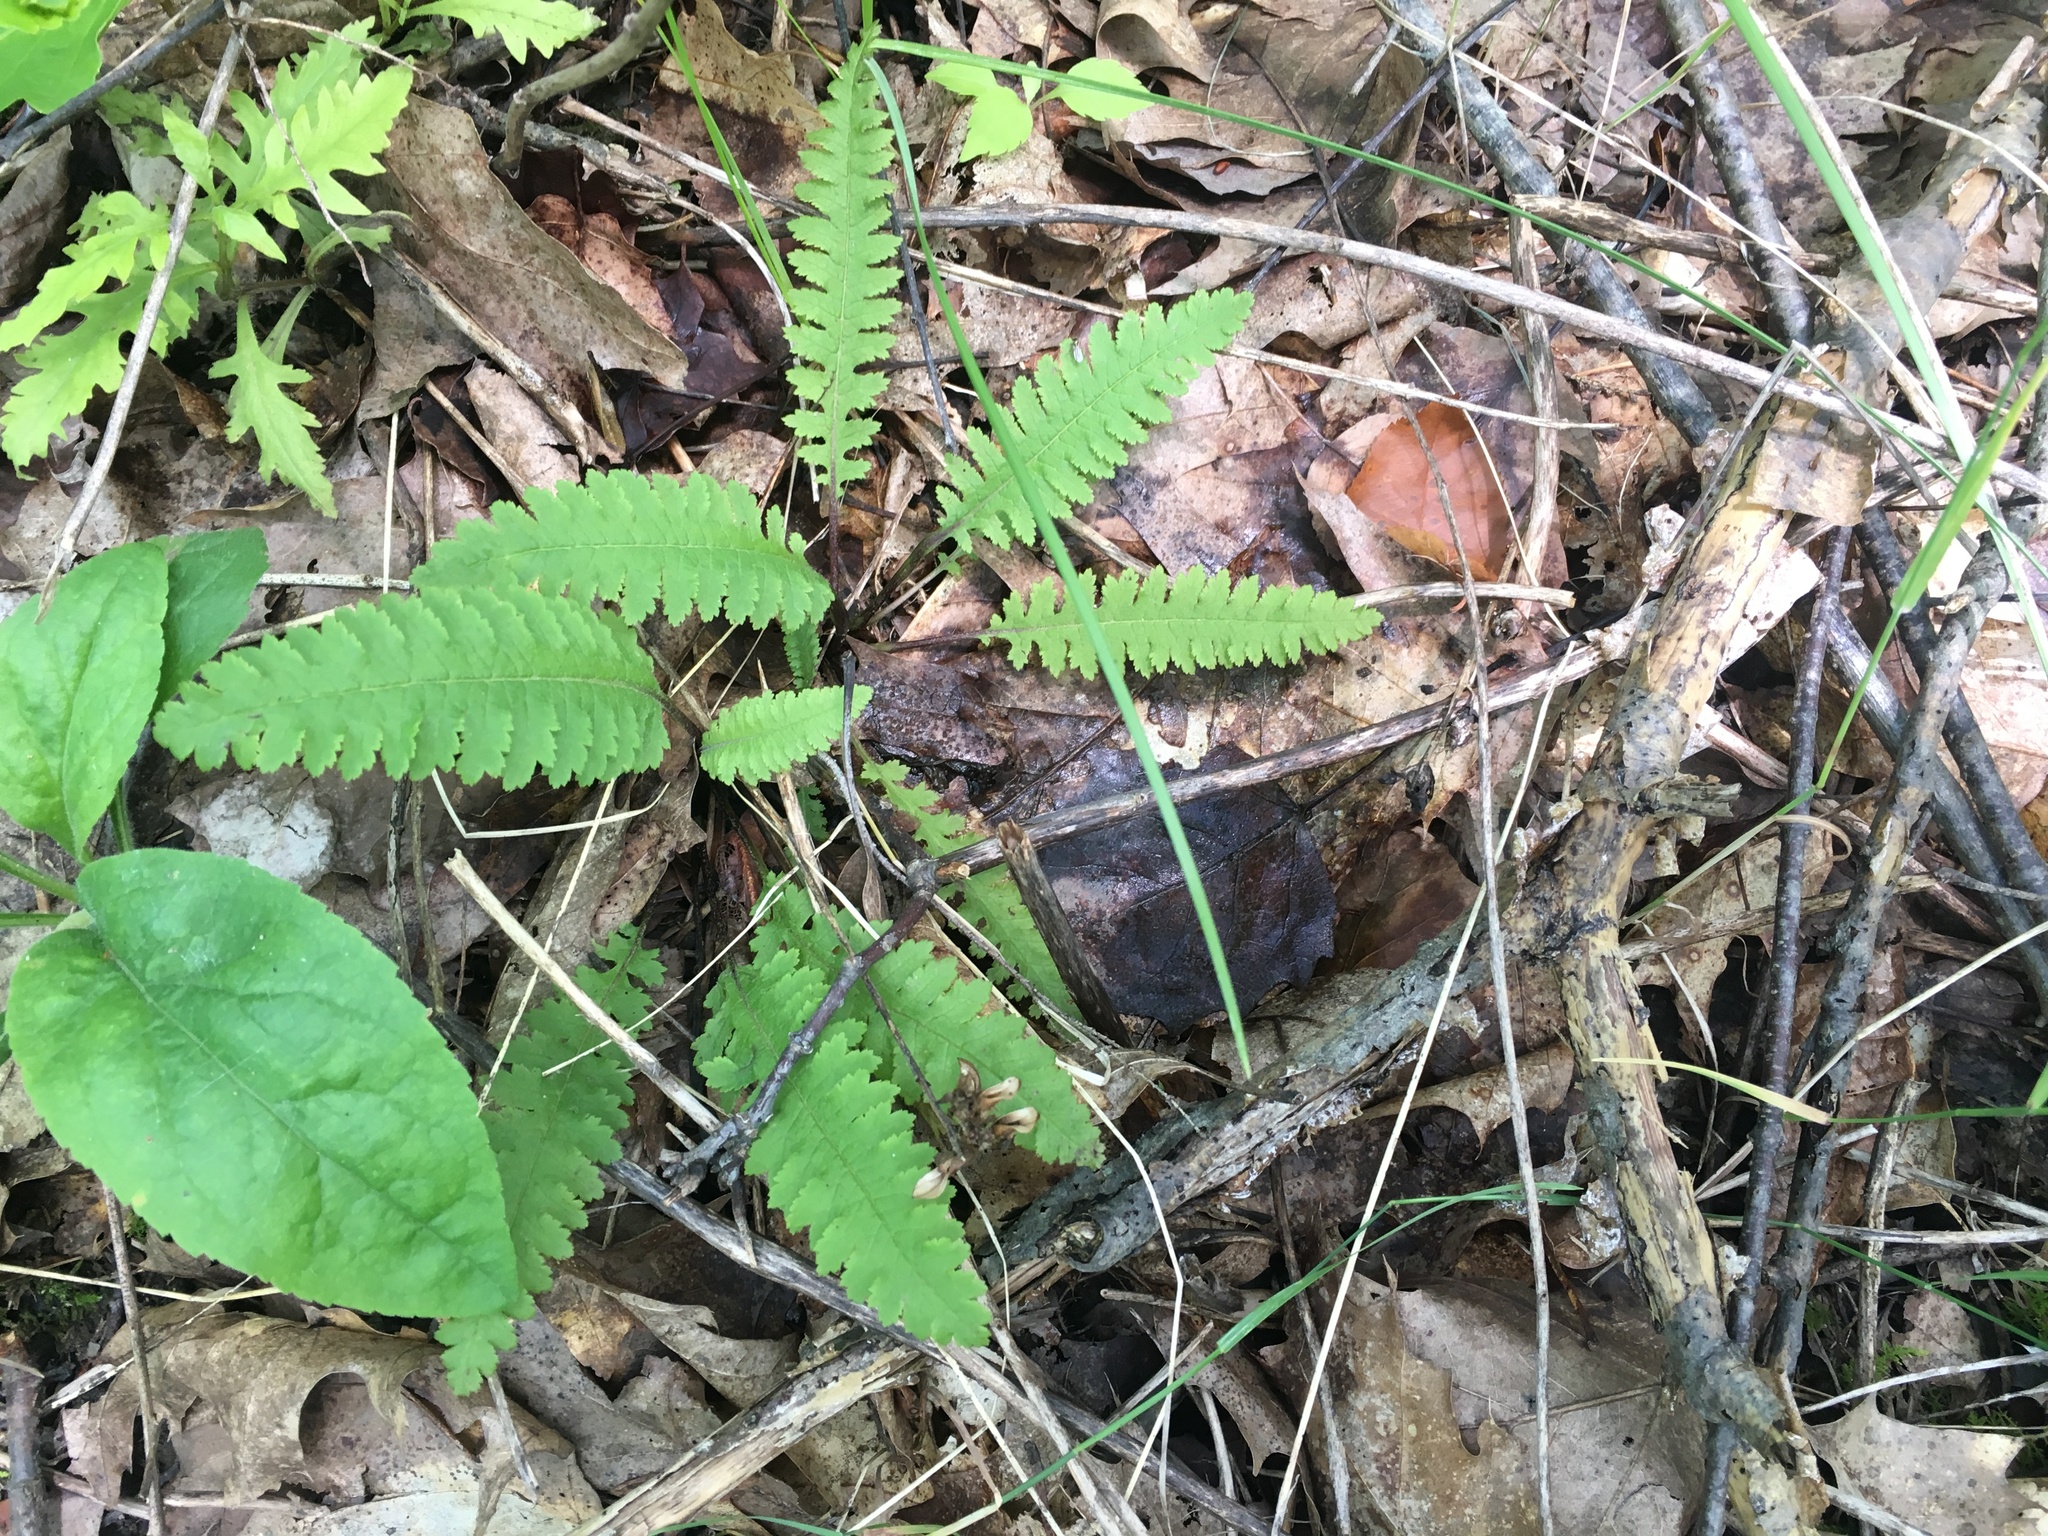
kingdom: Plantae
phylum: Tracheophyta
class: Magnoliopsida
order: Lamiales
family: Orobanchaceae
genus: Pedicularis
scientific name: Pedicularis canadensis
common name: Early lousewort
